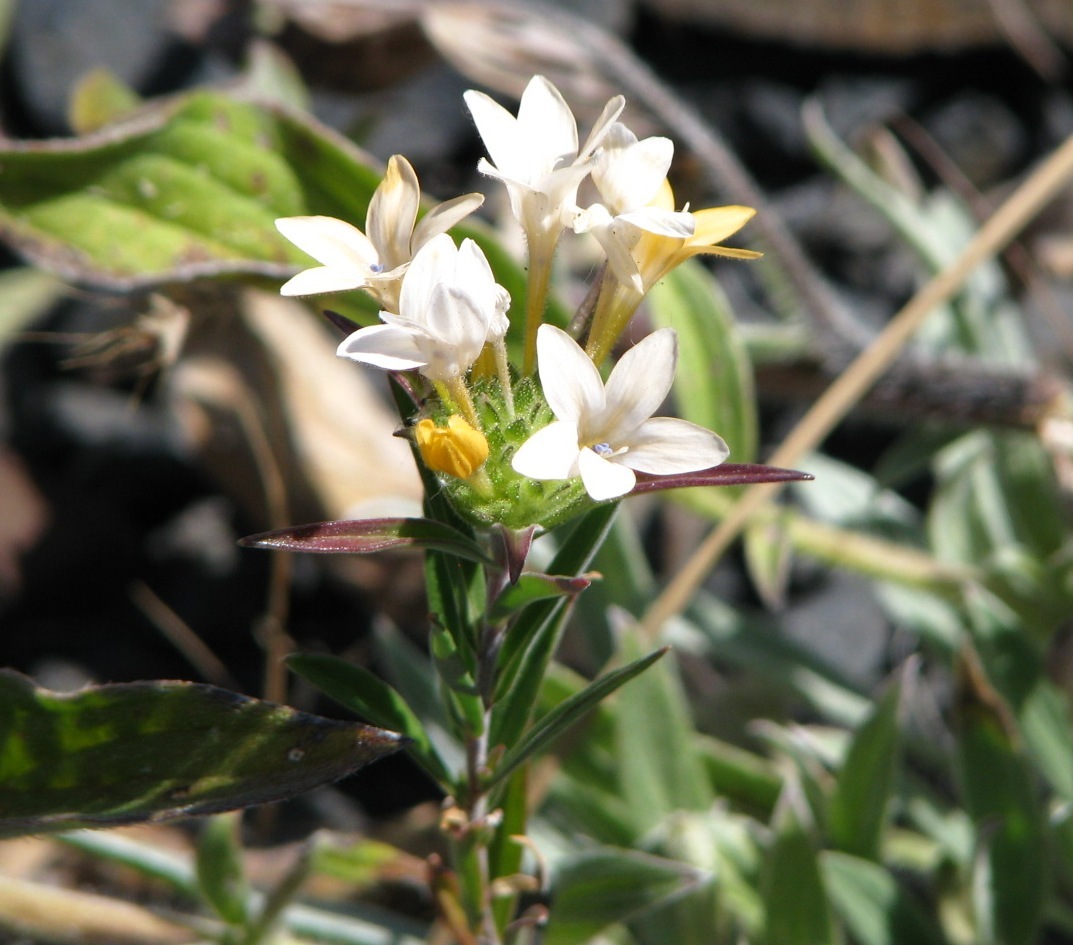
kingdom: Plantae
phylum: Tracheophyta
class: Magnoliopsida
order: Ericales
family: Polemoniaceae
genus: Collomia
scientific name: Collomia grandiflora
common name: California strawflower
